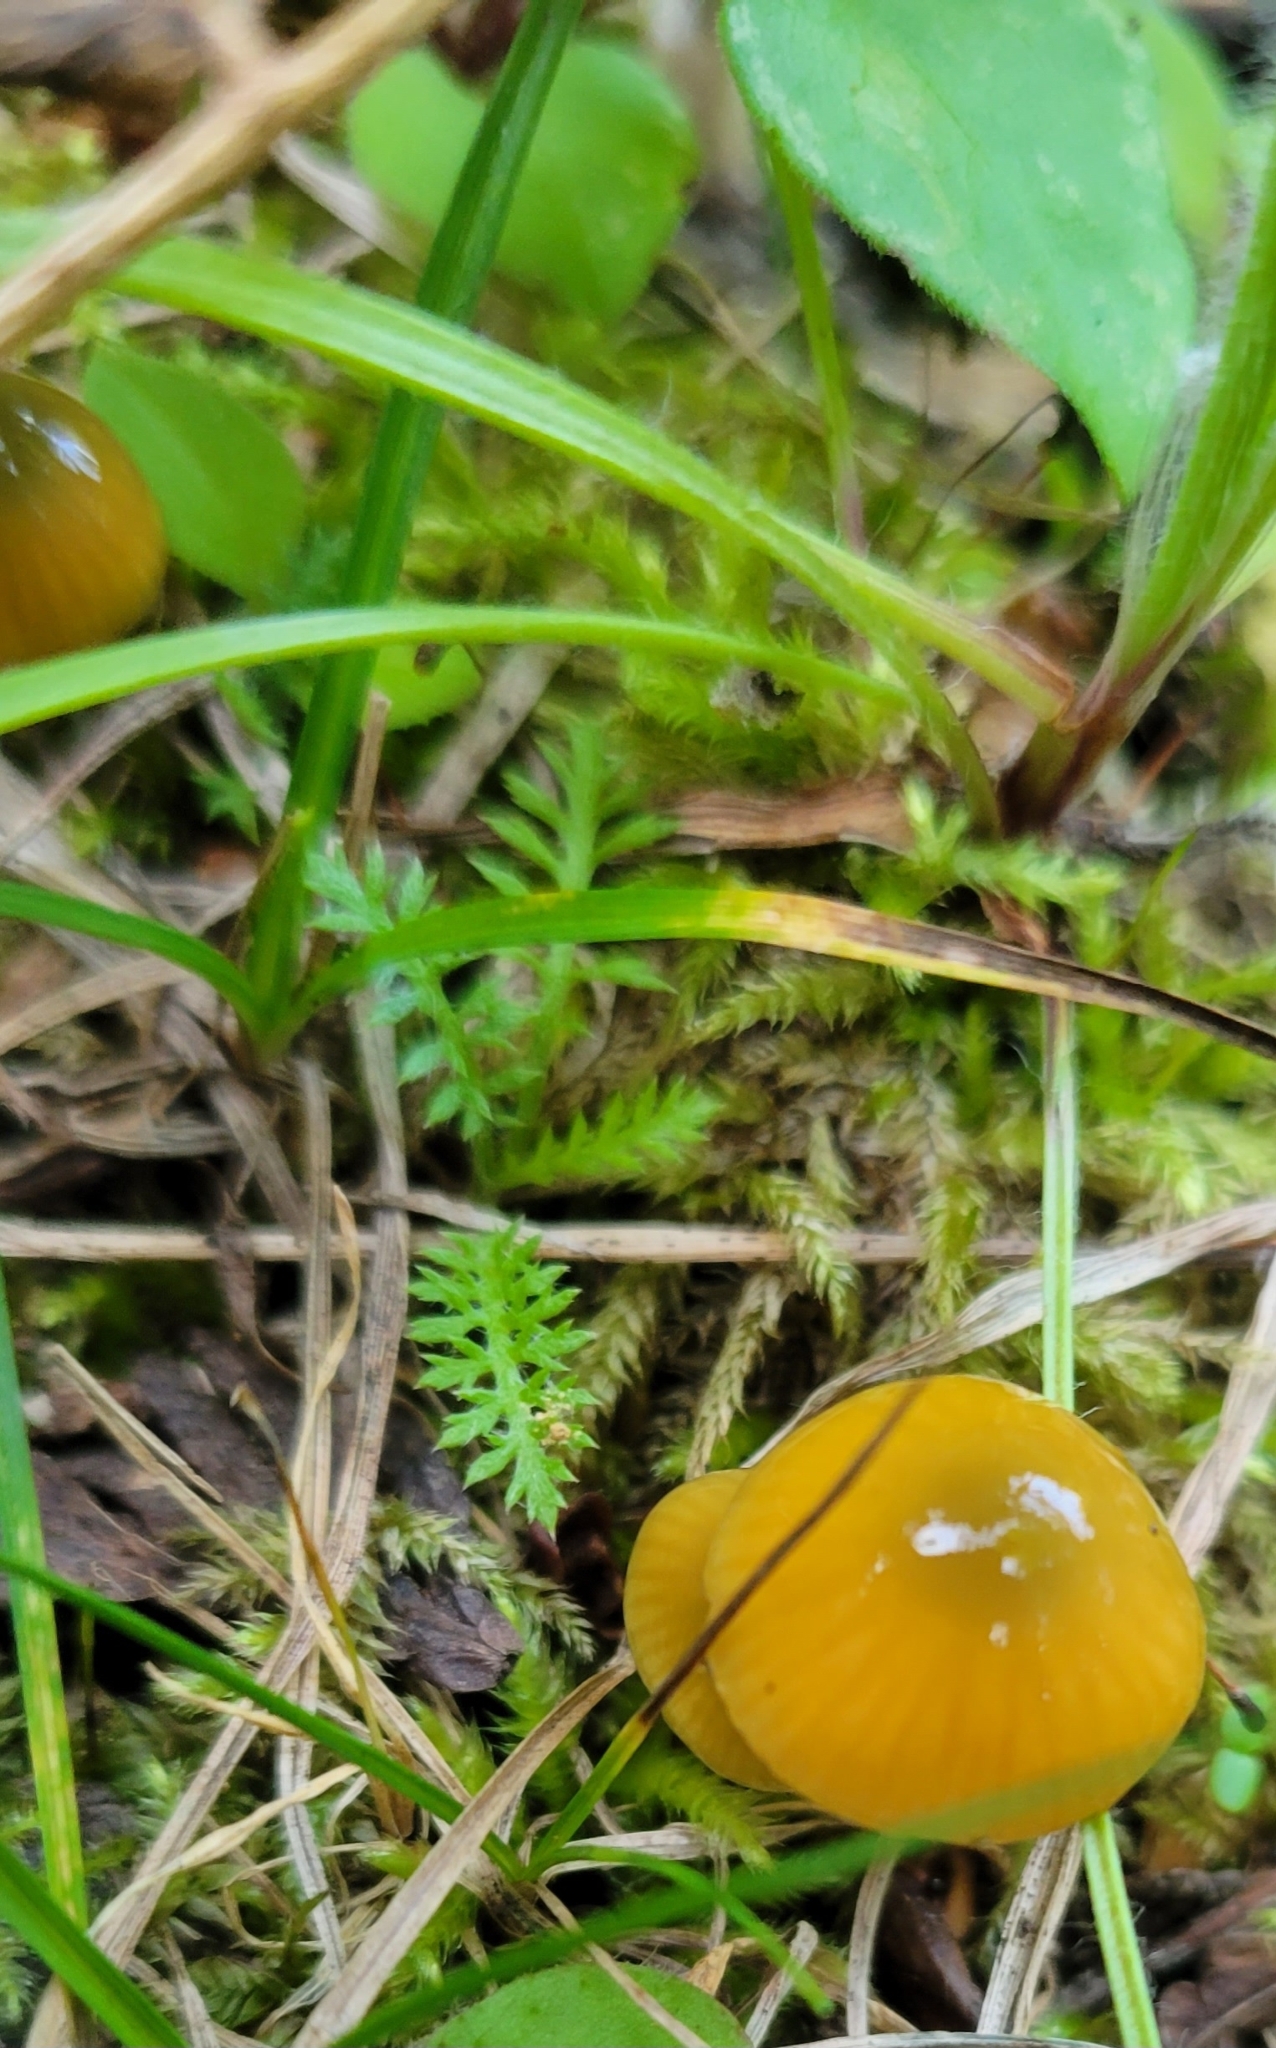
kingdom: Fungi
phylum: Basidiomycota
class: Agaricomycetes
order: Agaricales
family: Hygrophoraceae
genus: Gliophorus
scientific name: Gliophorus psittacinus
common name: Parrot wax-cap
